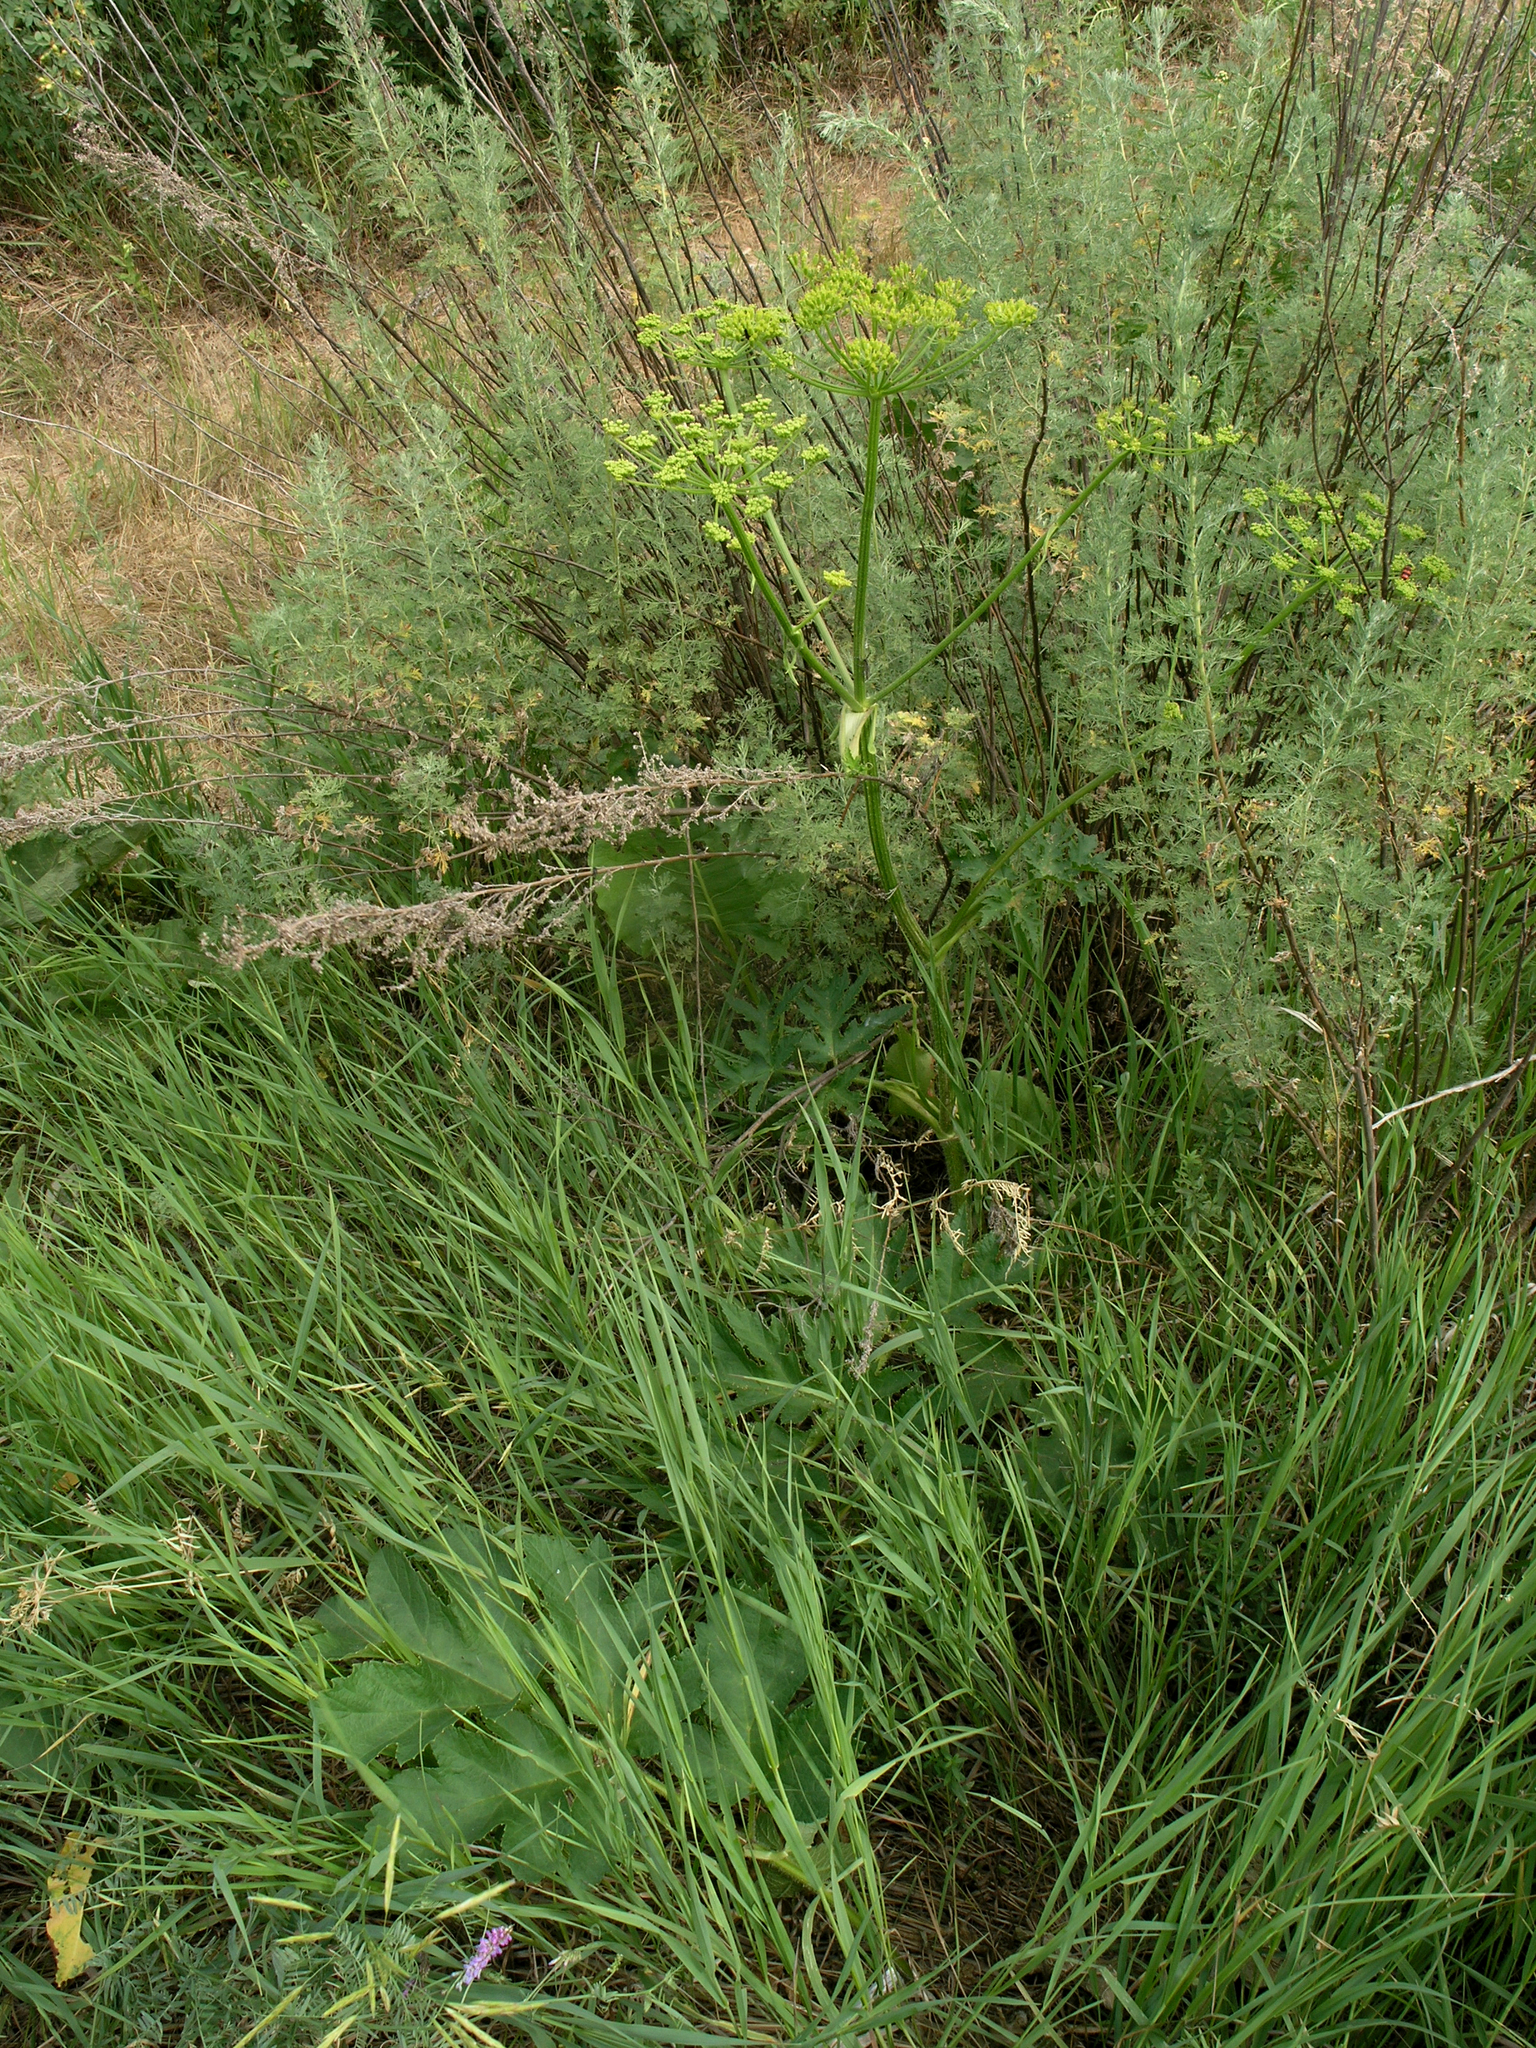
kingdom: Plantae
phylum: Tracheophyta
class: Magnoliopsida
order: Apiales
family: Apiaceae
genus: Heracleum
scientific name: Heracleum sphondylium
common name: Hogweed
